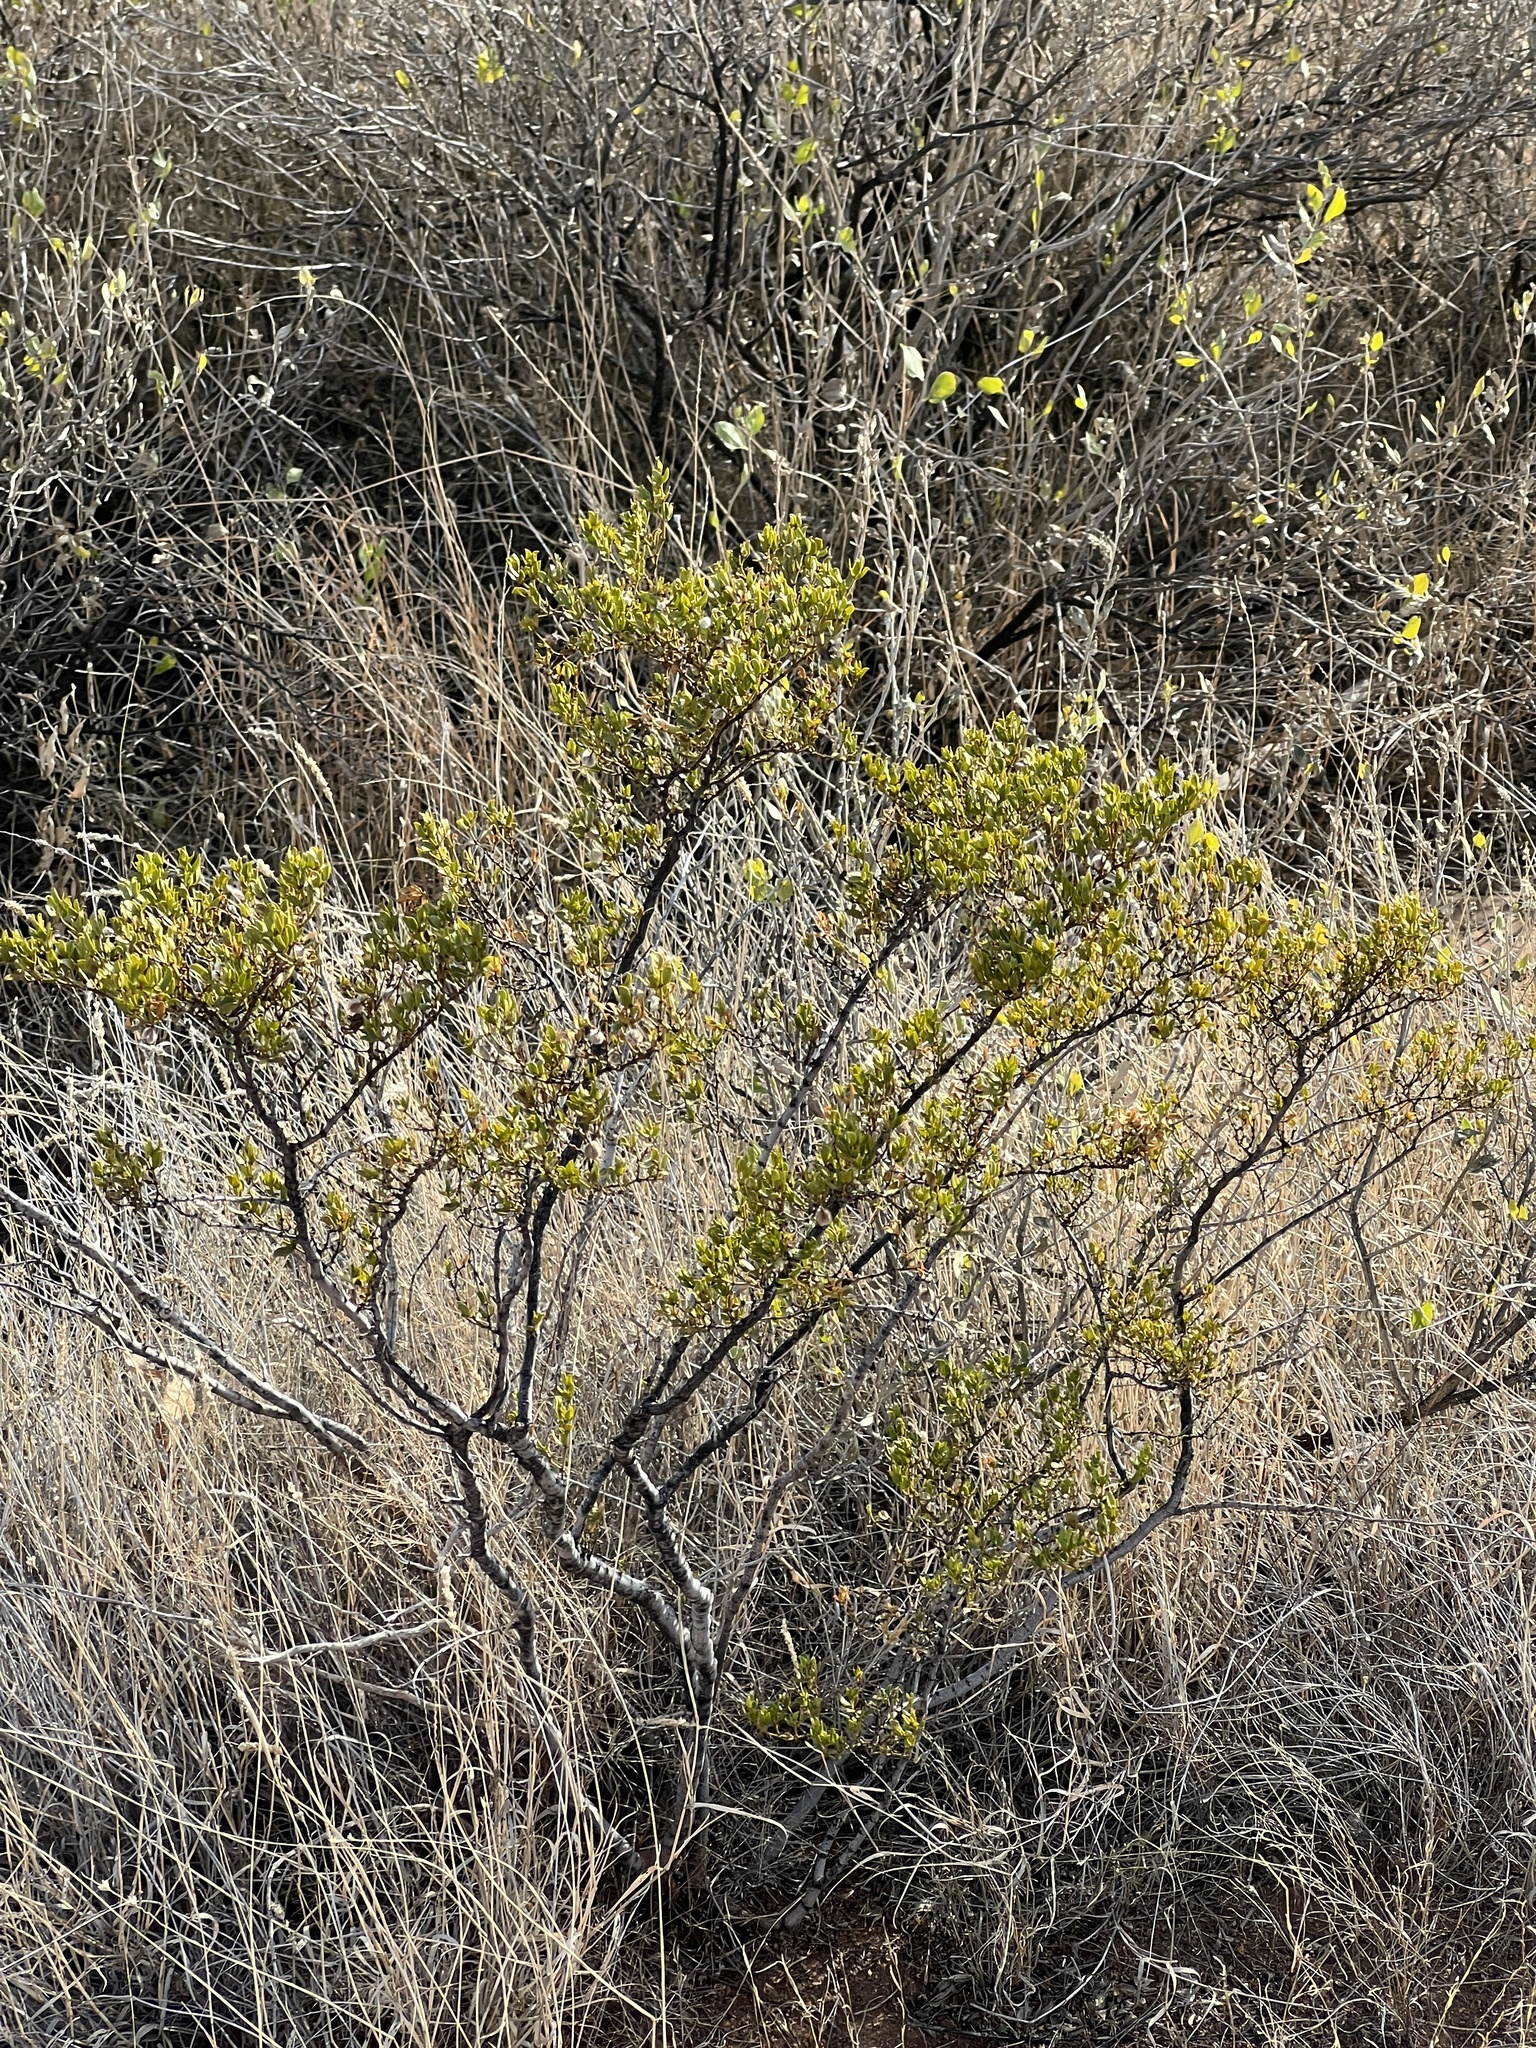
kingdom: Plantae
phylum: Tracheophyta
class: Magnoliopsida
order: Zygophyllales
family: Zygophyllaceae
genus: Larrea
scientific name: Larrea tridentata
